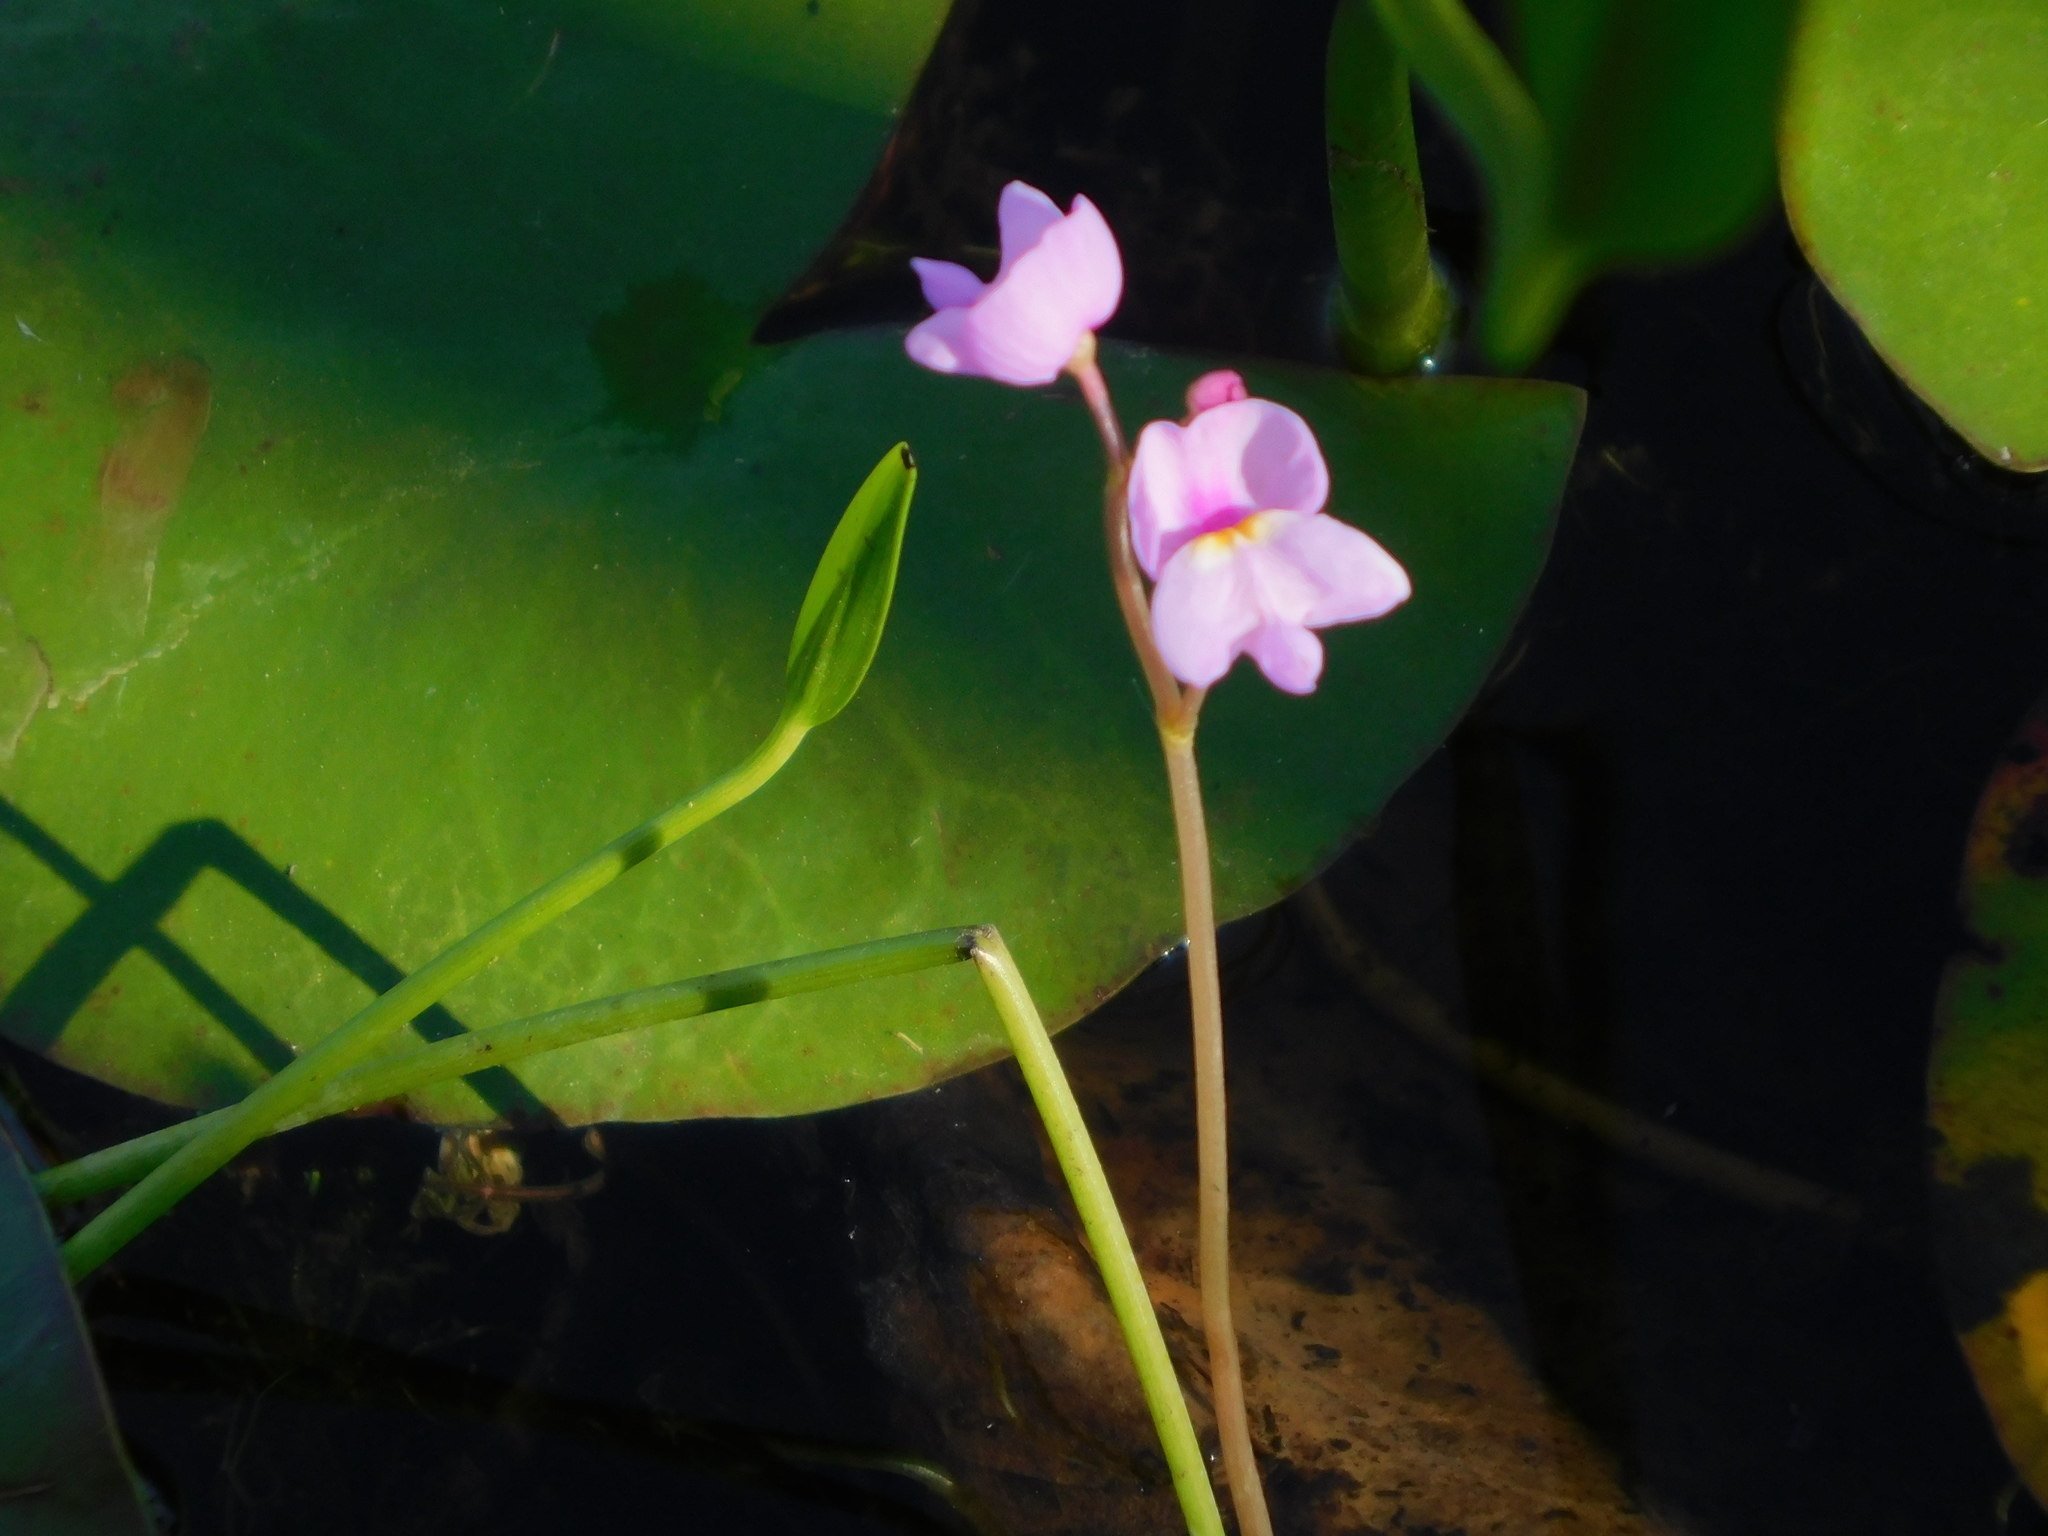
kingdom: Plantae
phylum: Tracheophyta
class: Magnoliopsida
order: Lamiales
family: Lentibulariaceae
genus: Utricularia
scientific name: Utricularia purpurea
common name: Eastern purple bladderwort
